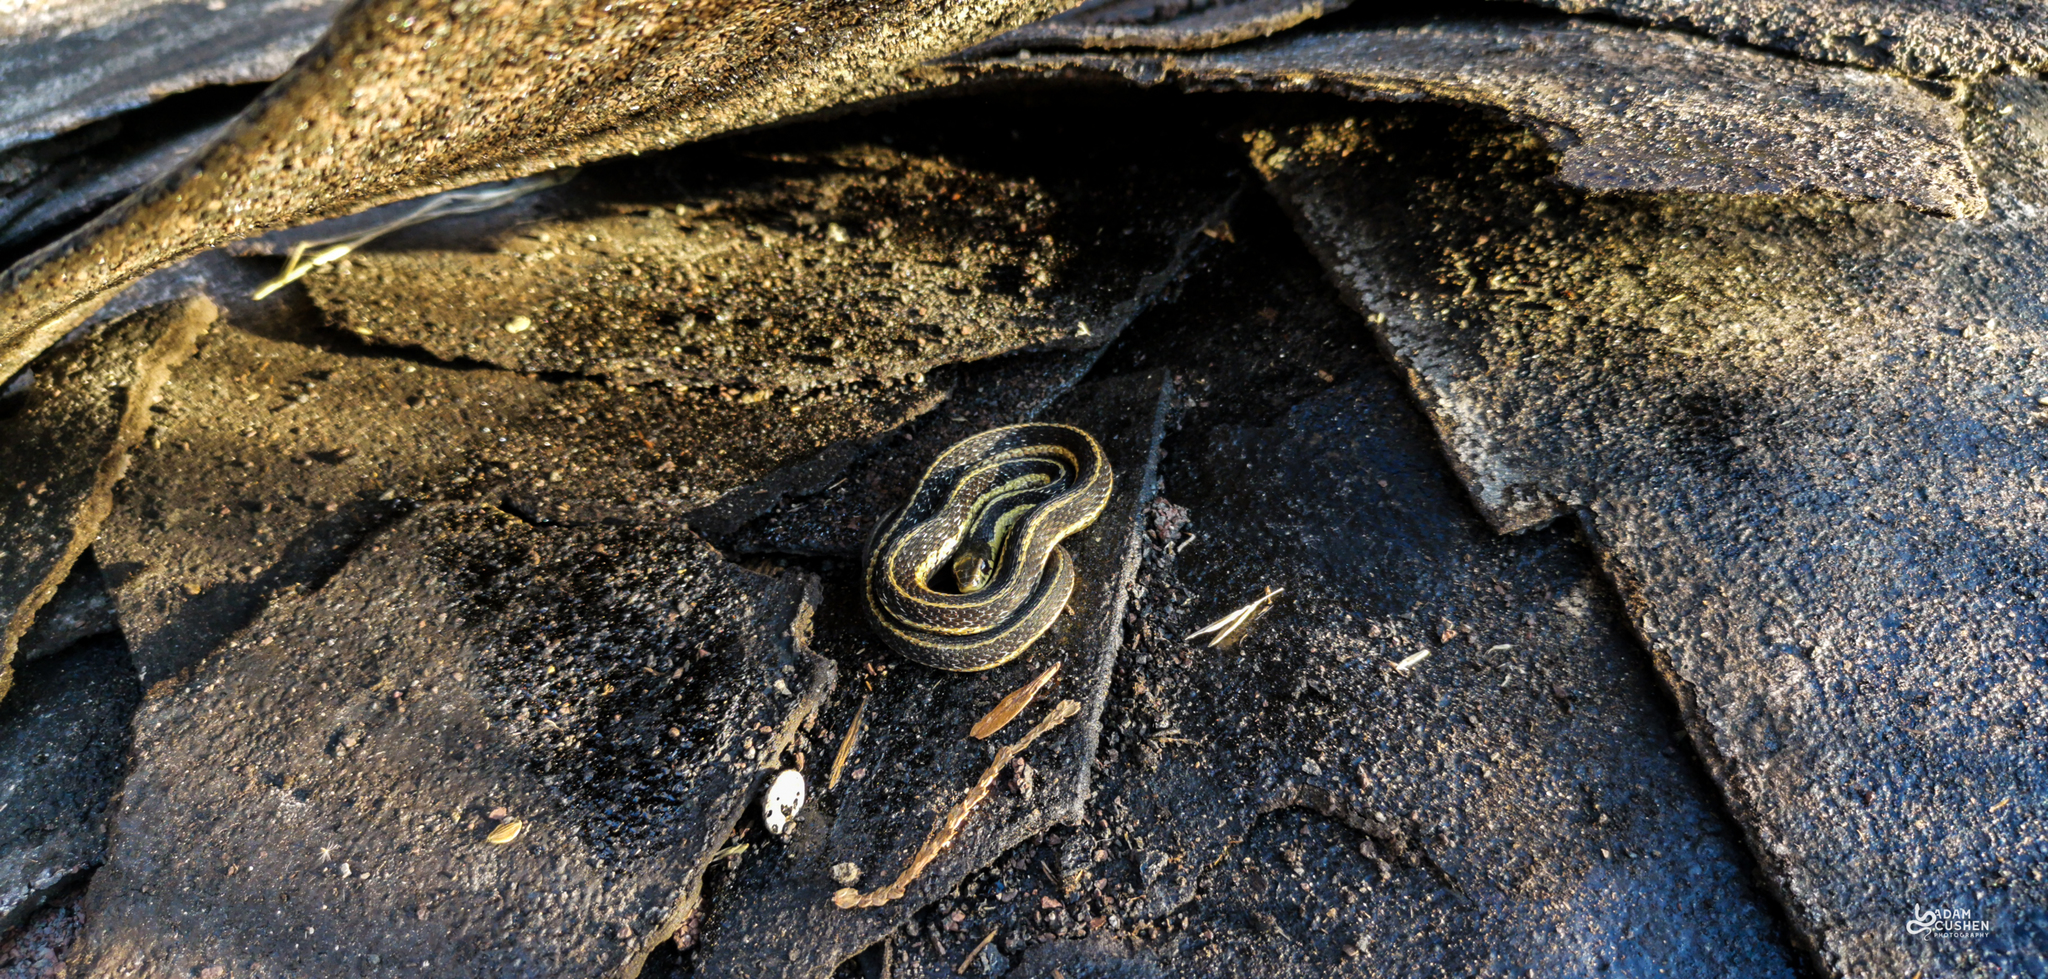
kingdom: Animalia
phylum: Chordata
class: Squamata
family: Colubridae
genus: Thamnophis
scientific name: Thamnophis sirtalis
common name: Common garter snake
